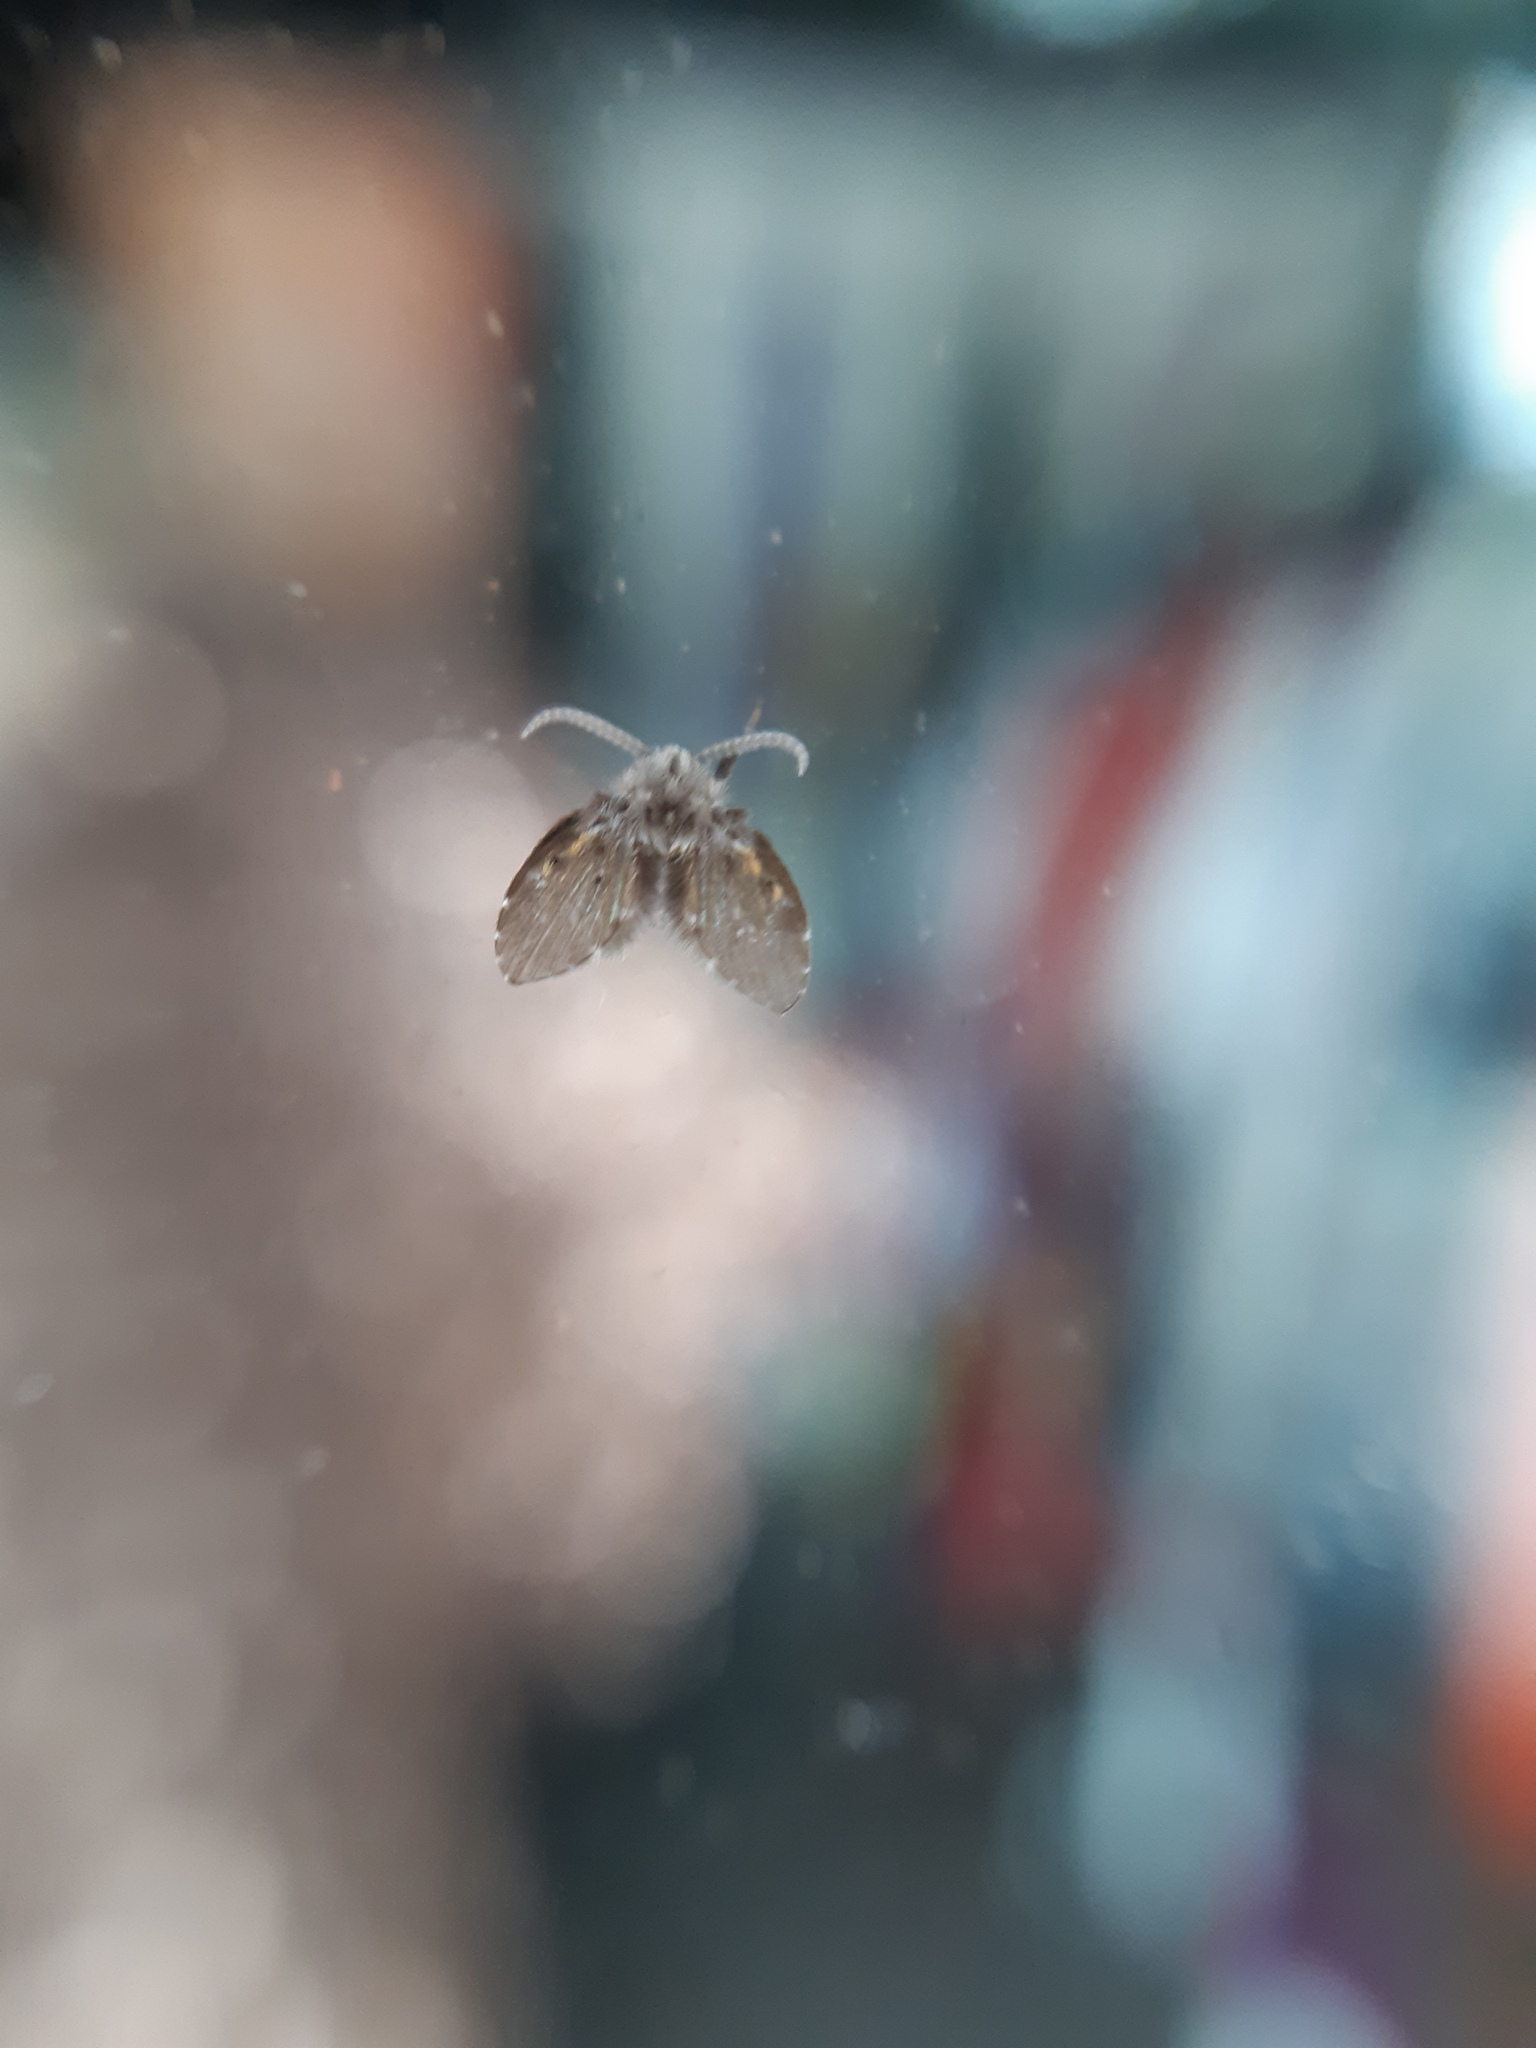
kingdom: Animalia
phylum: Arthropoda
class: Insecta
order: Diptera
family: Psychodidae
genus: Clogmia
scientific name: Clogmia albipunctatus
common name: White-spotted moth fly
